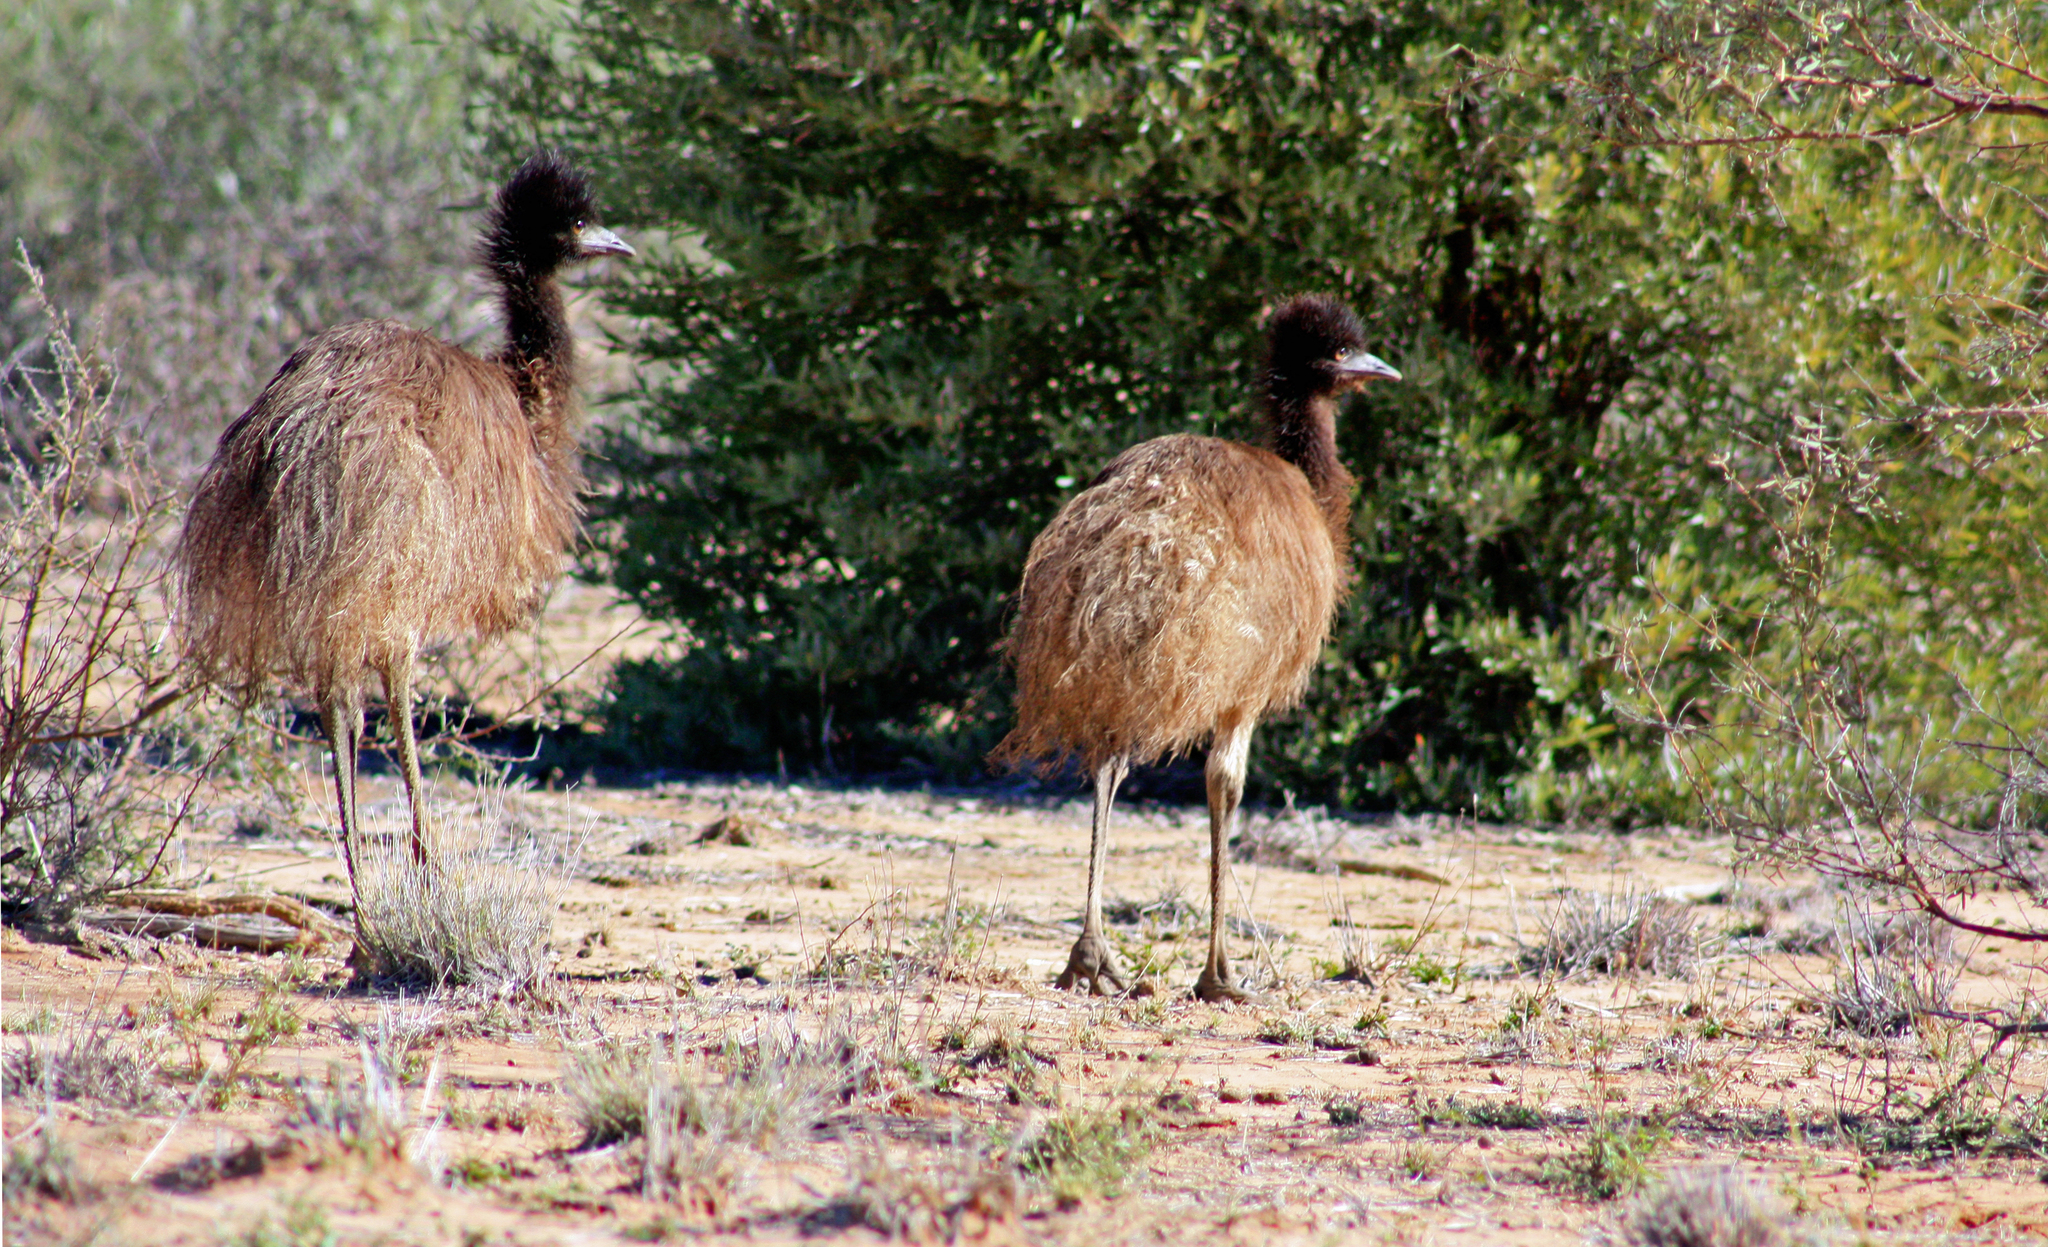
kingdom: Animalia
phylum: Chordata
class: Aves
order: Casuariiformes
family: Dromaiidae
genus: Dromaius
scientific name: Dromaius novaehollandiae
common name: Emu
